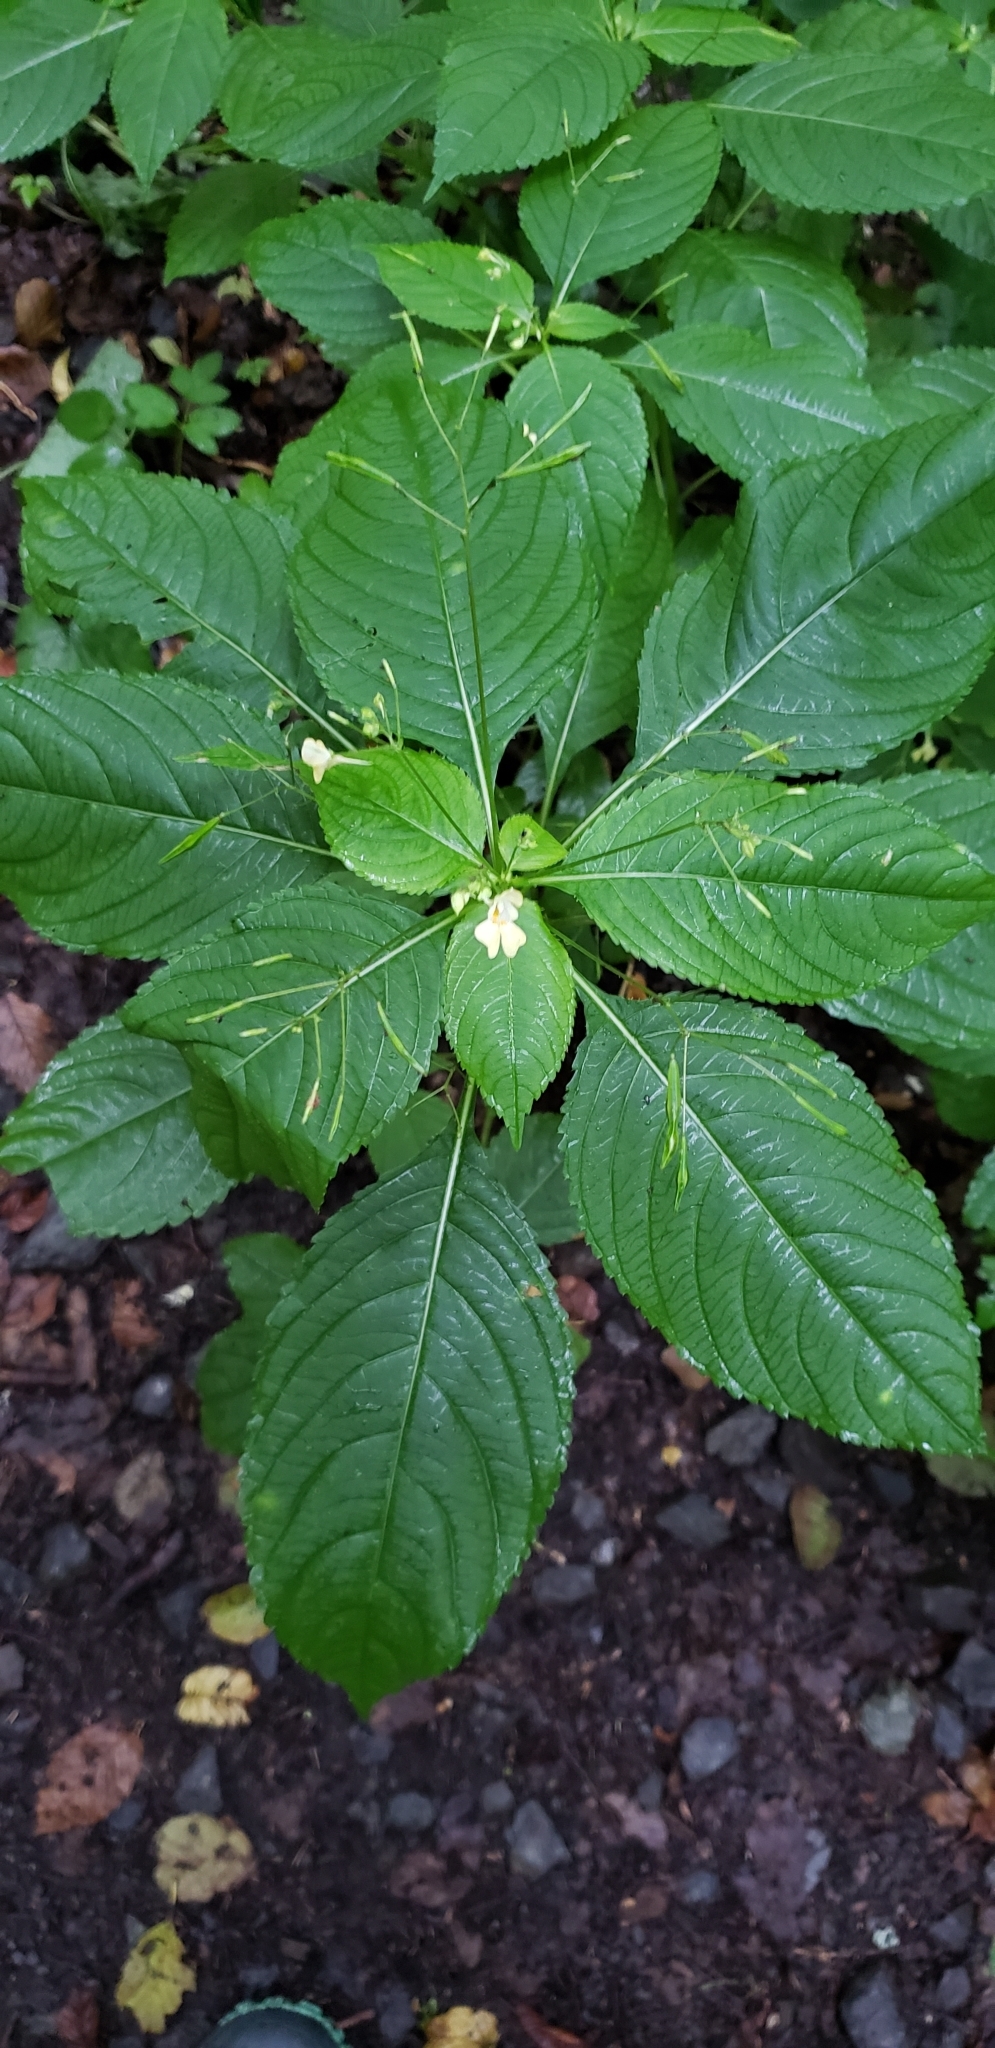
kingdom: Plantae
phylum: Tracheophyta
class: Magnoliopsida
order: Ericales
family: Balsaminaceae
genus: Impatiens
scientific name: Impatiens parviflora
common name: Small balsam
